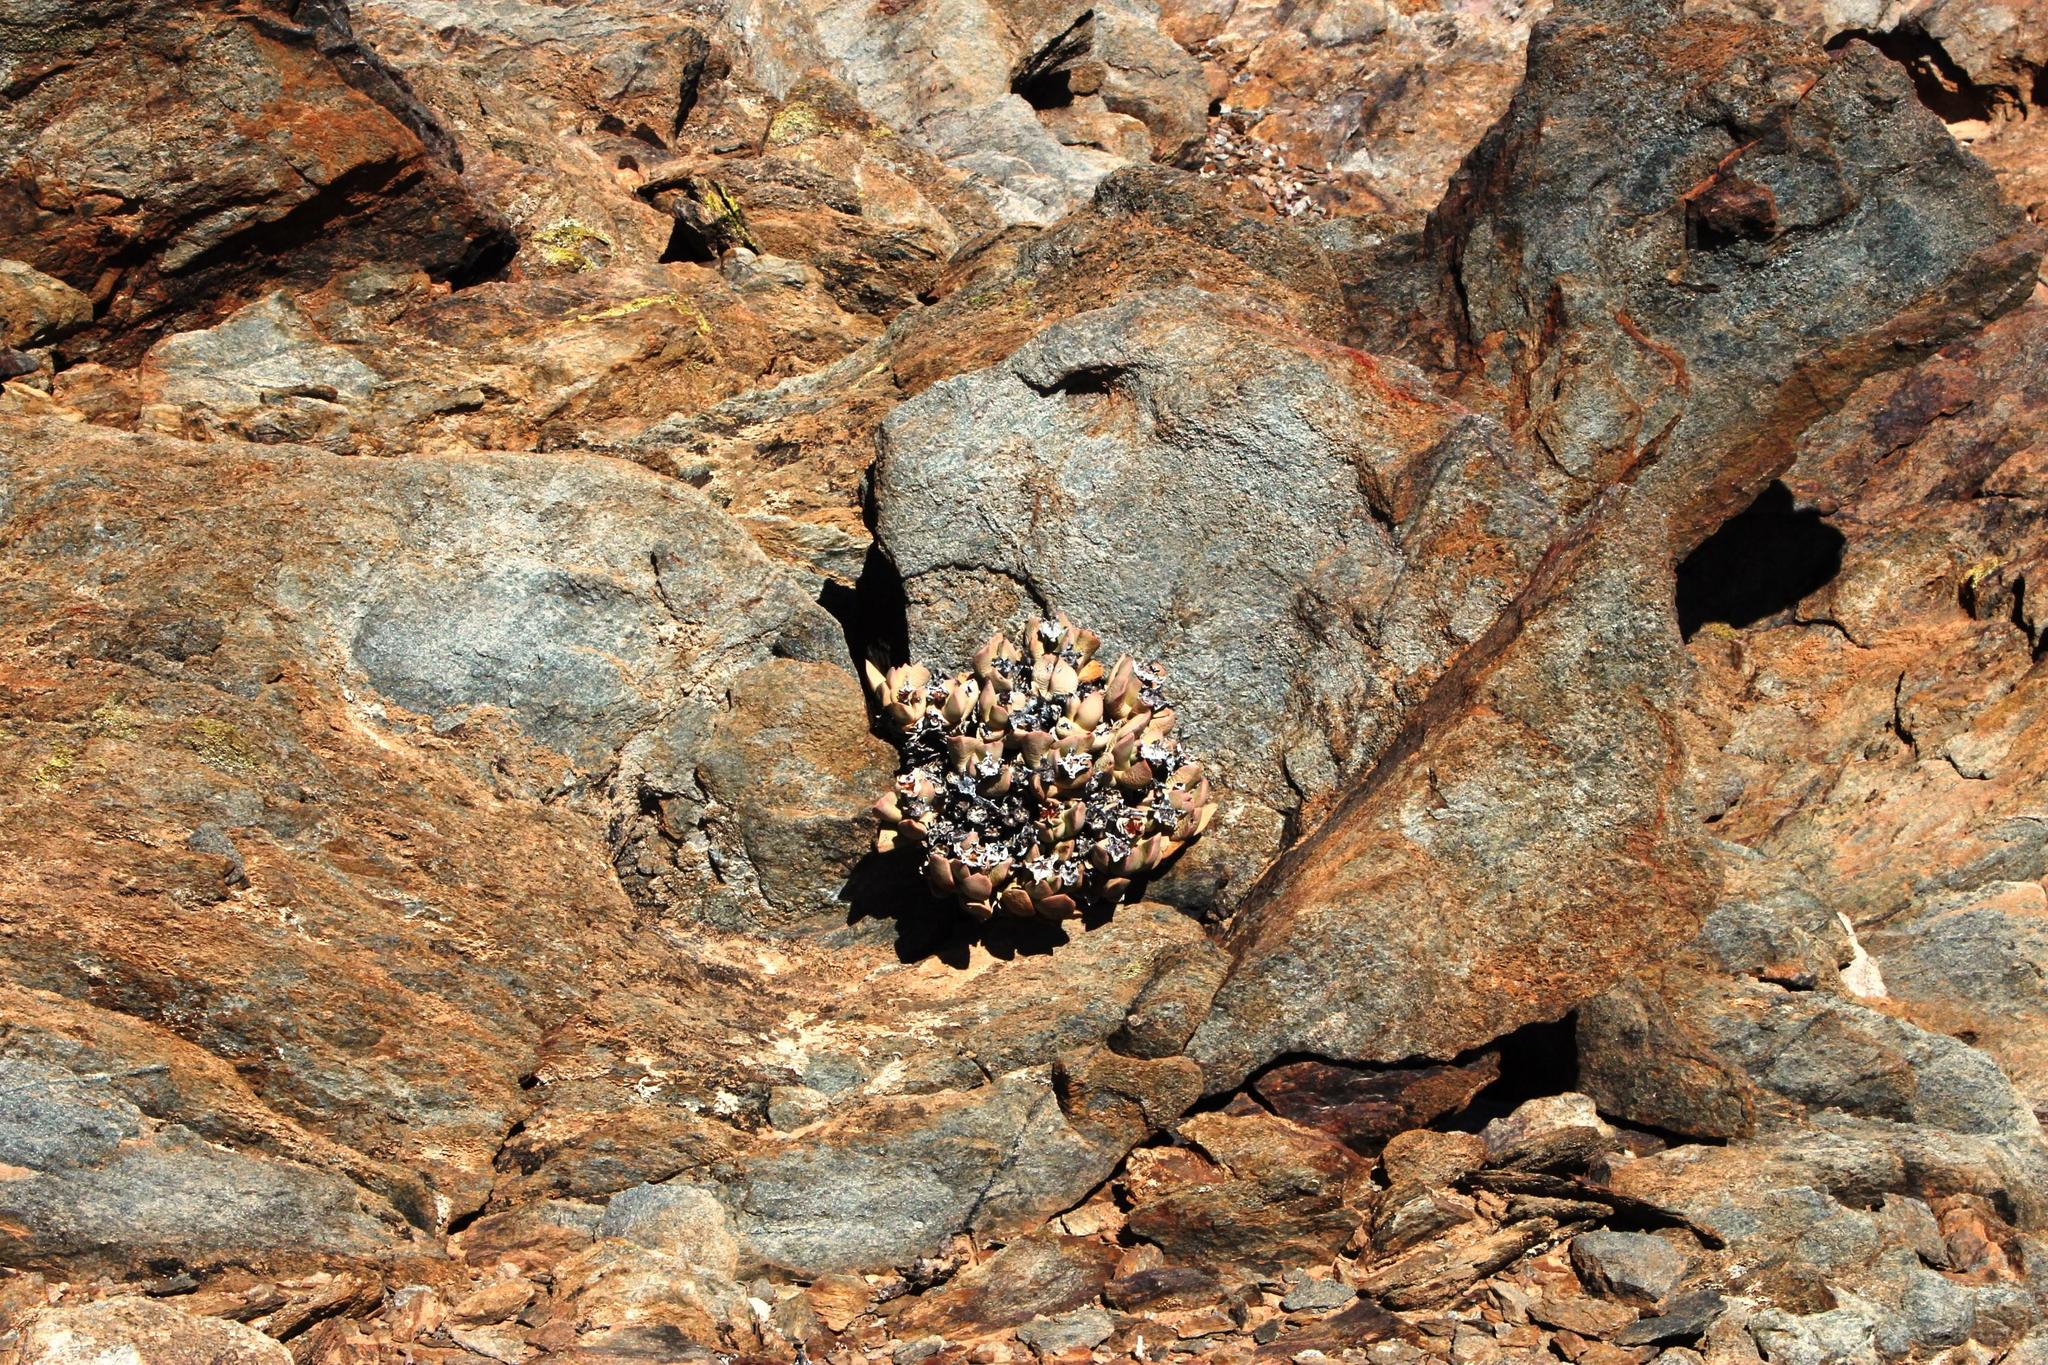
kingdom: Plantae
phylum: Tracheophyta
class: Magnoliopsida
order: Caryophyllales
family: Aizoaceae
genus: Schwantesia
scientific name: Schwantesia herrei
